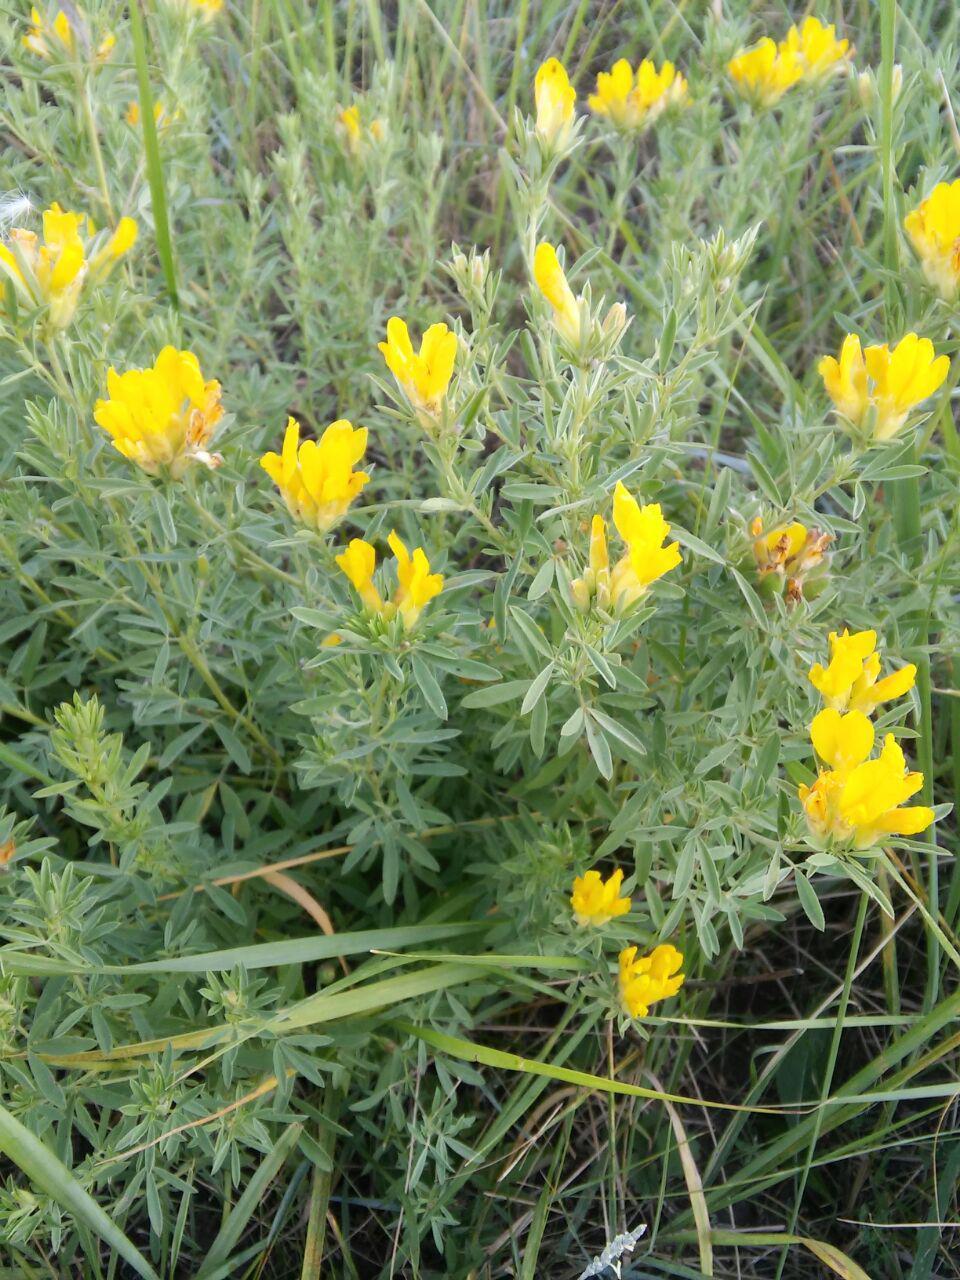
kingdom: Plantae
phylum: Tracheophyta
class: Magnoliopsida
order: Fabales
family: Fabaceae
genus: Genista
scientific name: Genista tinctoria
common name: Dyer's greenweed
